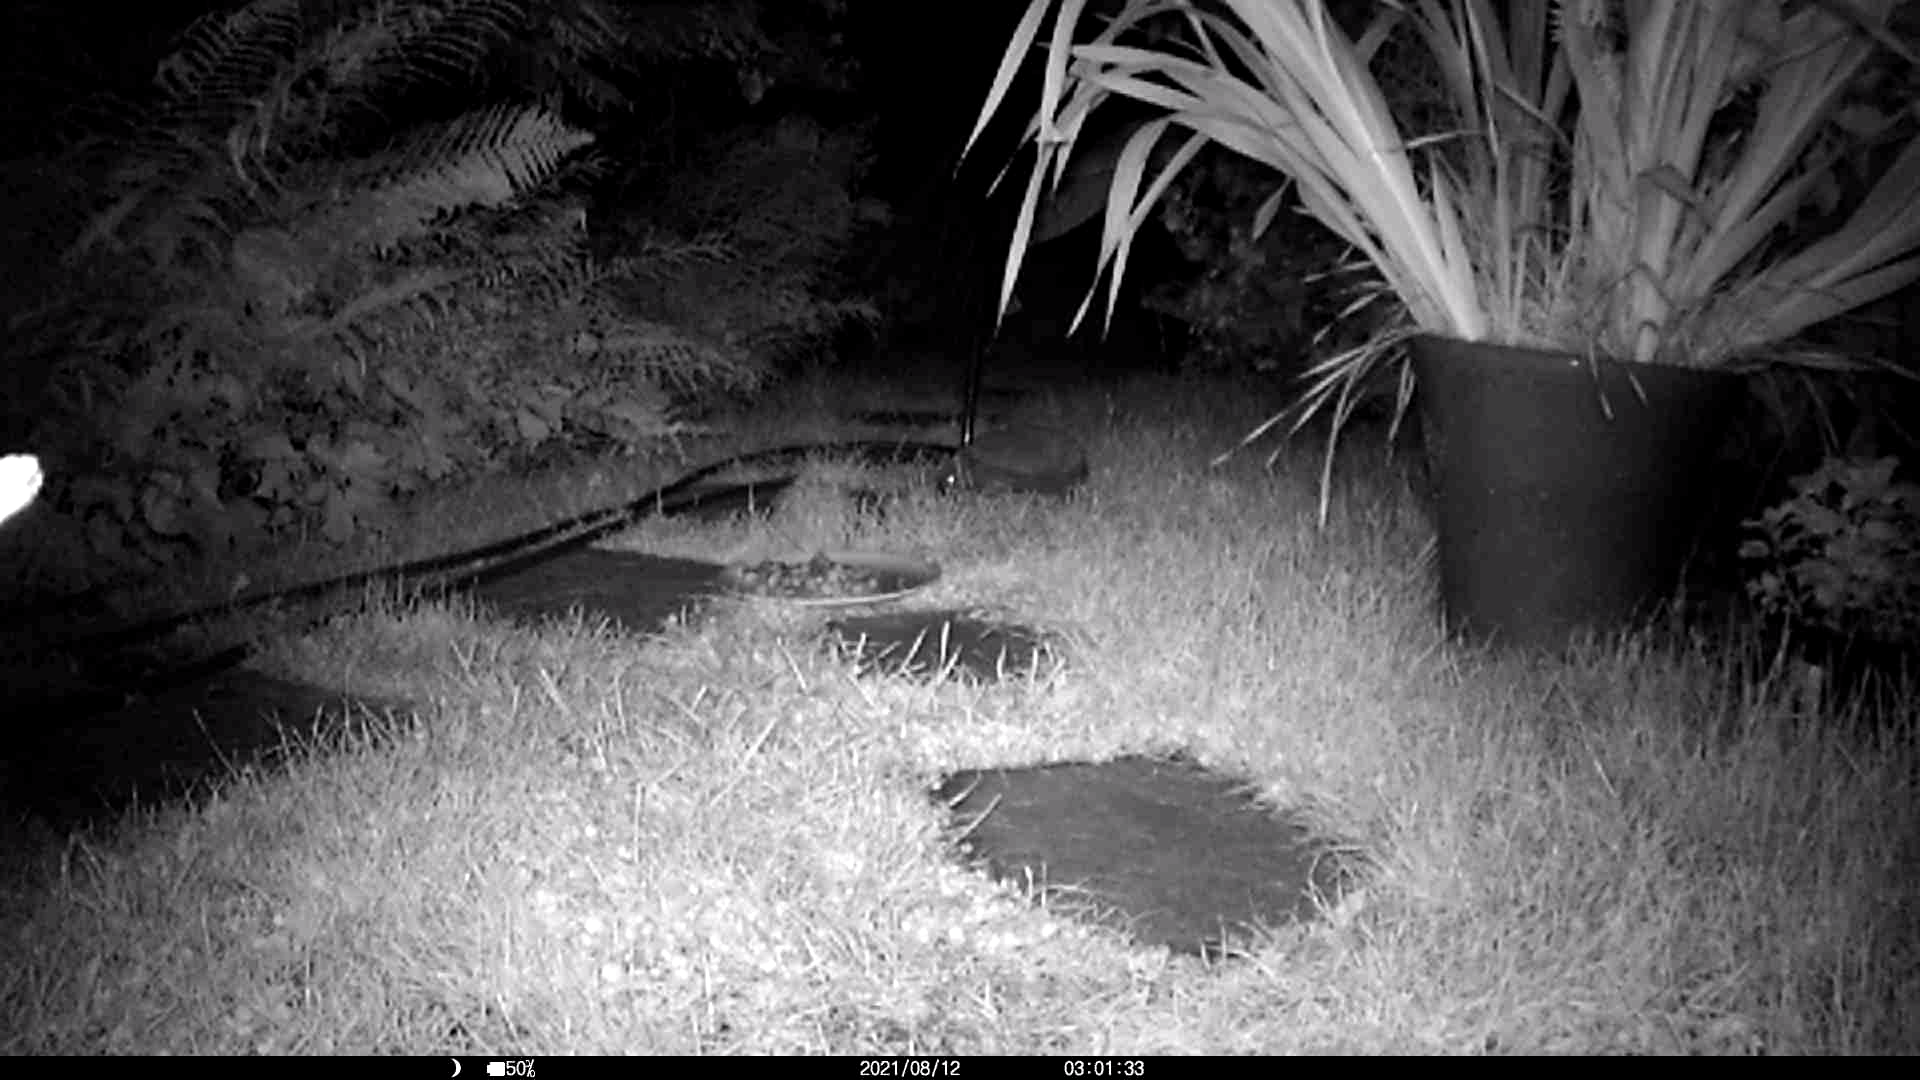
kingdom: Animalia
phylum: Chordata
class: Mammalia
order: Erinaceomorpha
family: Erinaceidae
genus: Erinaceus
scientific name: Erinaceus europaeus
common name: West european hedgehog
